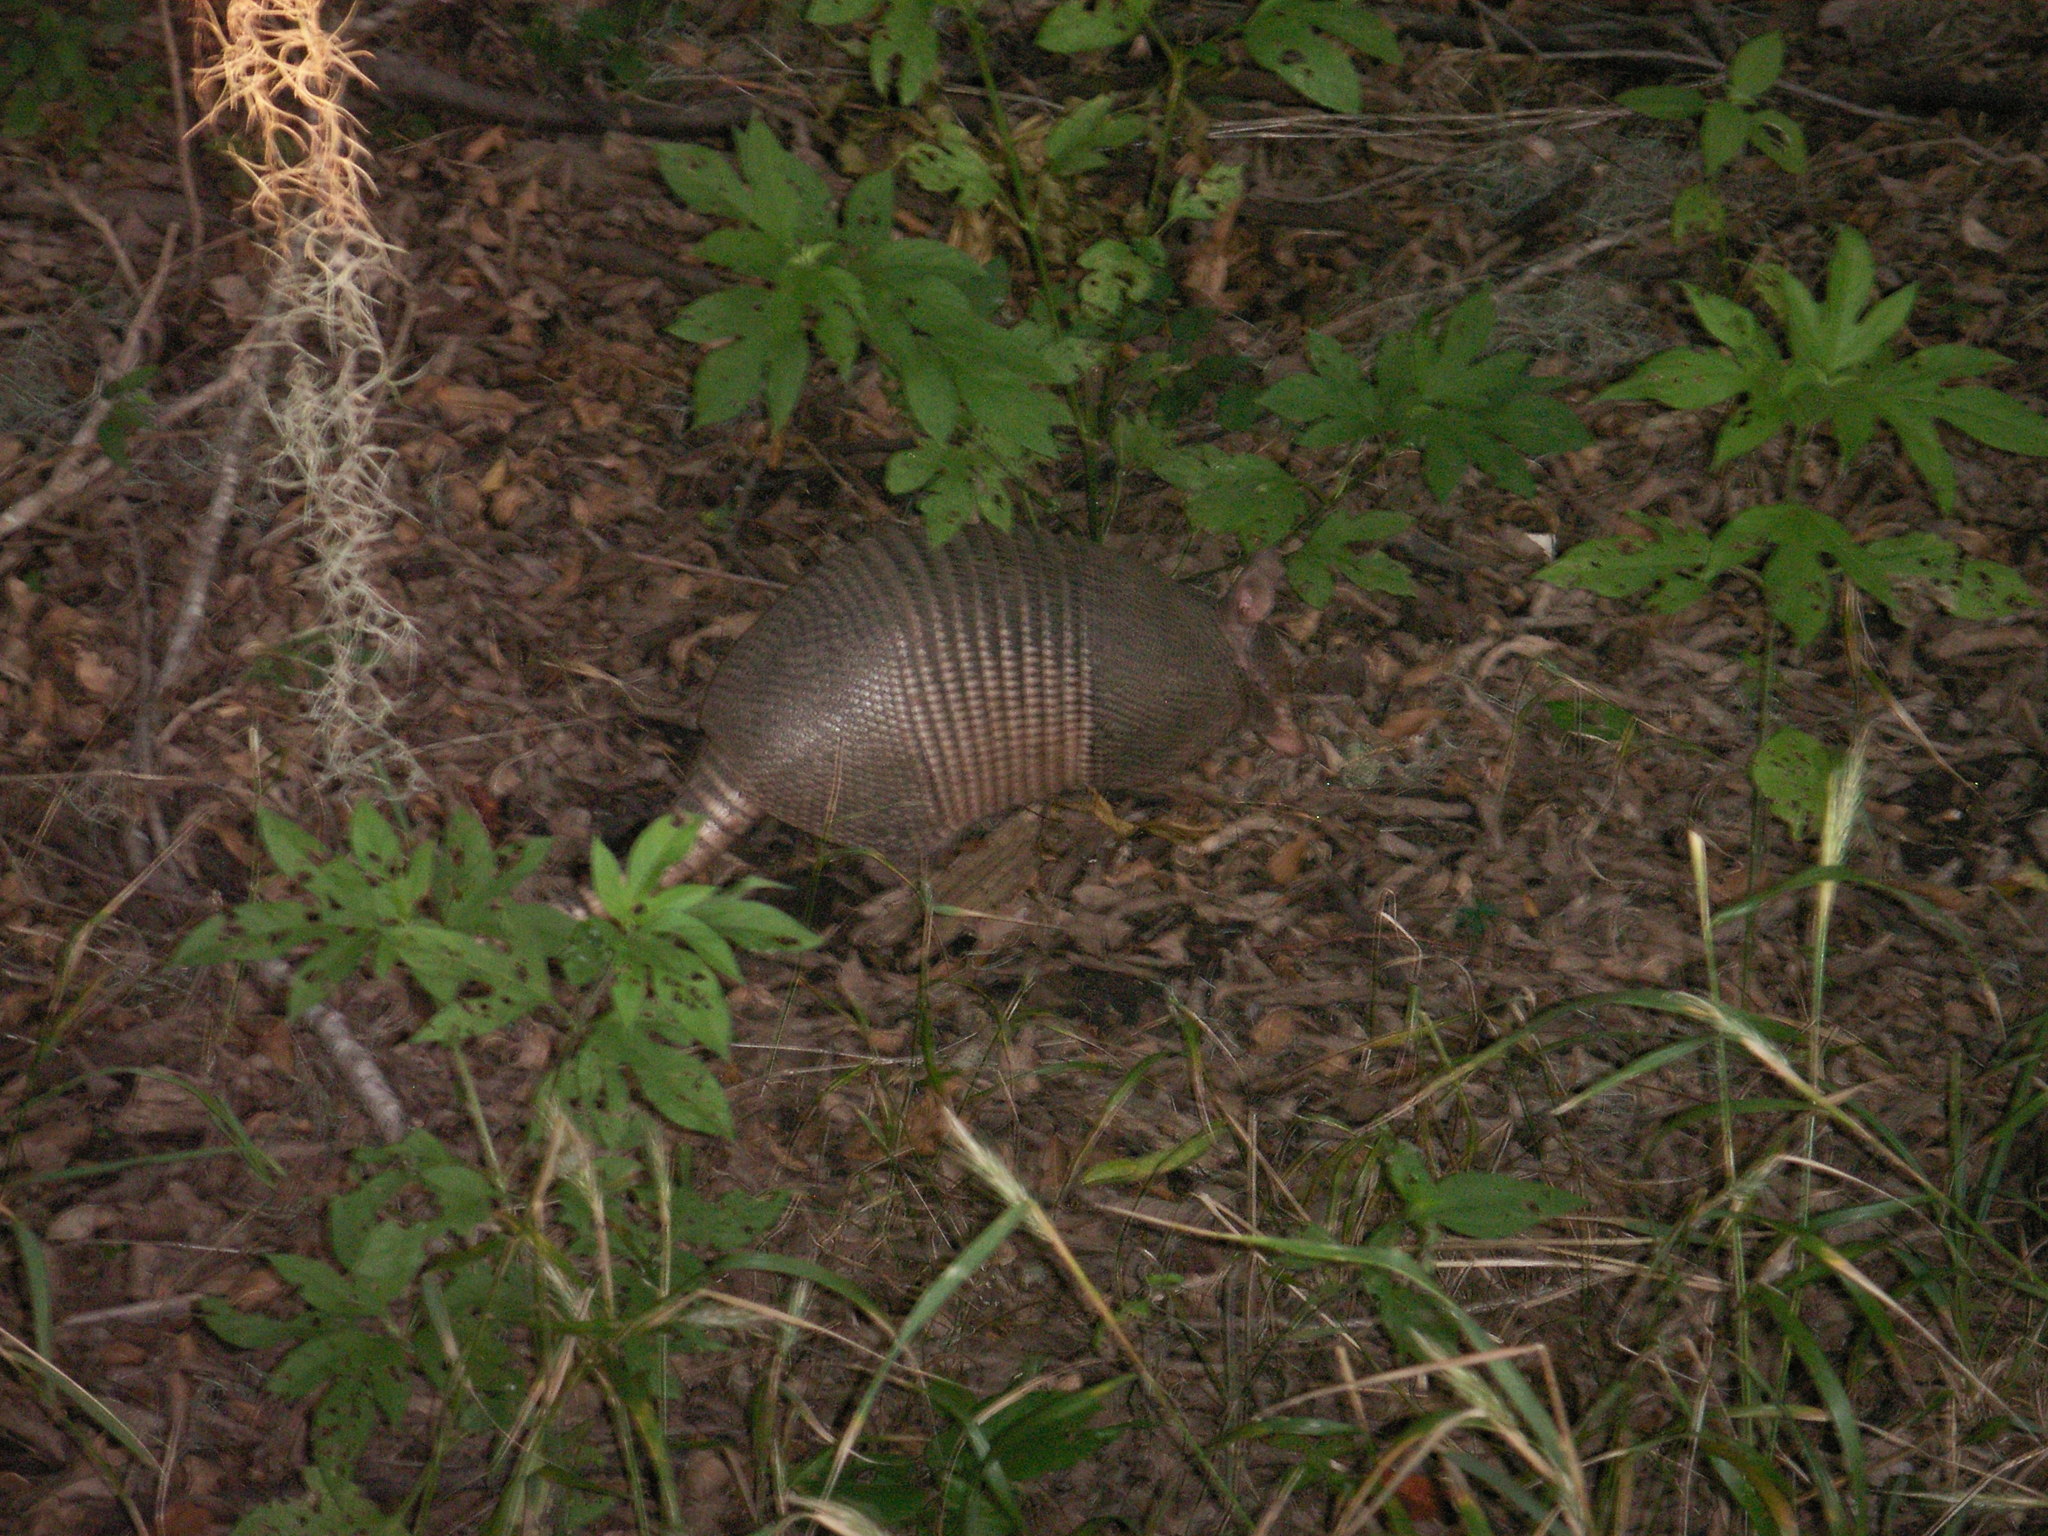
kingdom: Animalia
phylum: Chordata
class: Mammalia
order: Cingulata
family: Dasypodidae
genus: Dasypus
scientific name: Dasypus novemcinctus
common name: Nine-banded armadillo
